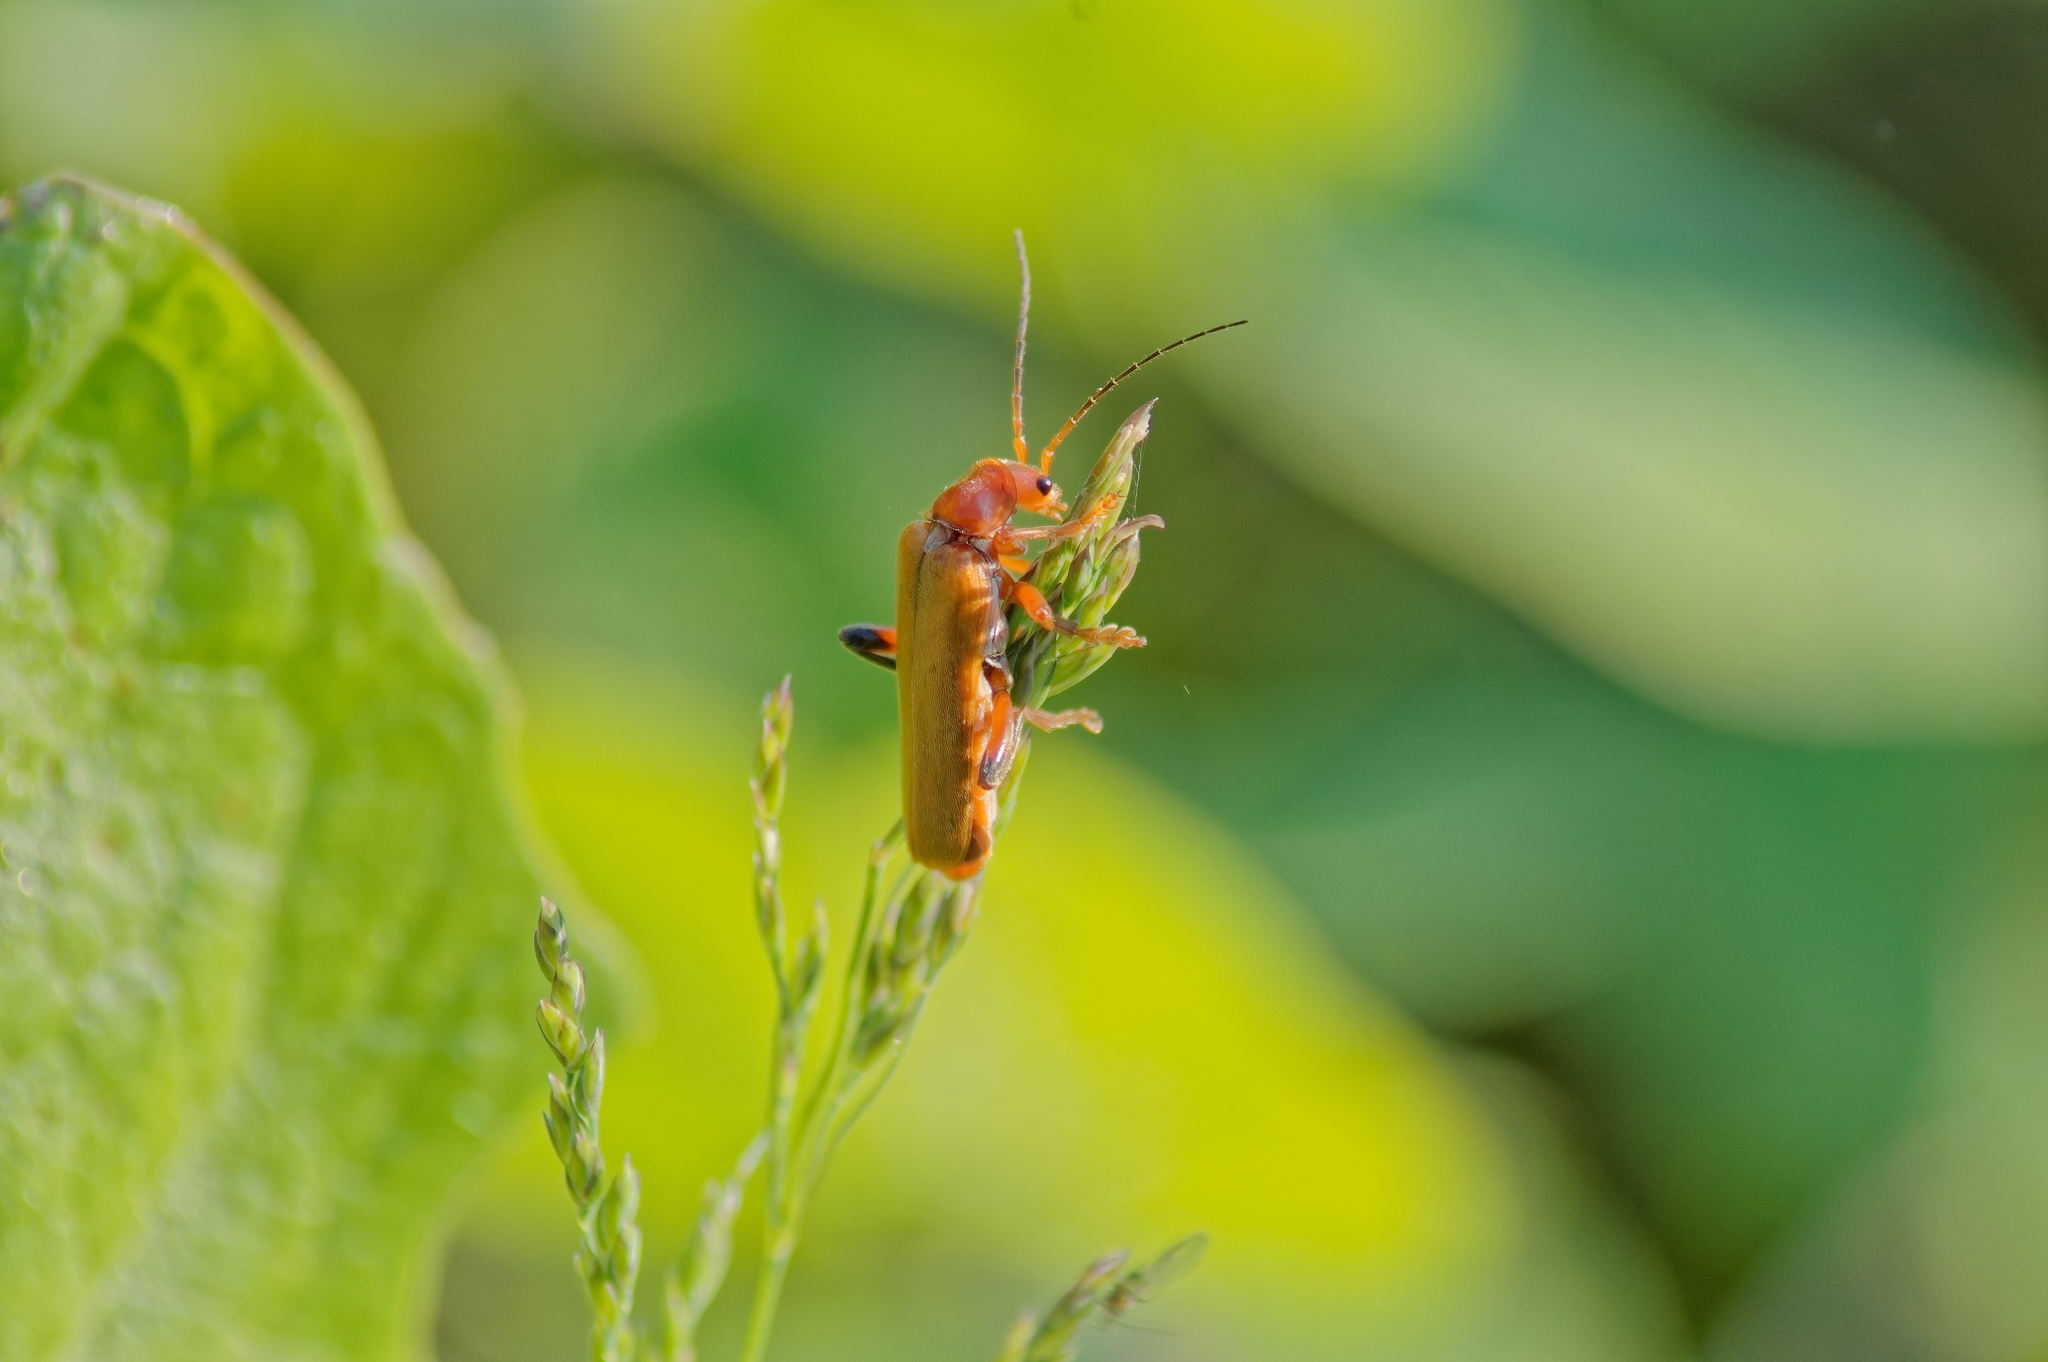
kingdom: Animalia
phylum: Arthropoda
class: Insecta
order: Coleoptera
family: Cantharidae
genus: Cantharis
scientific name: Cantharis livida
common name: Livid soldier beetle
